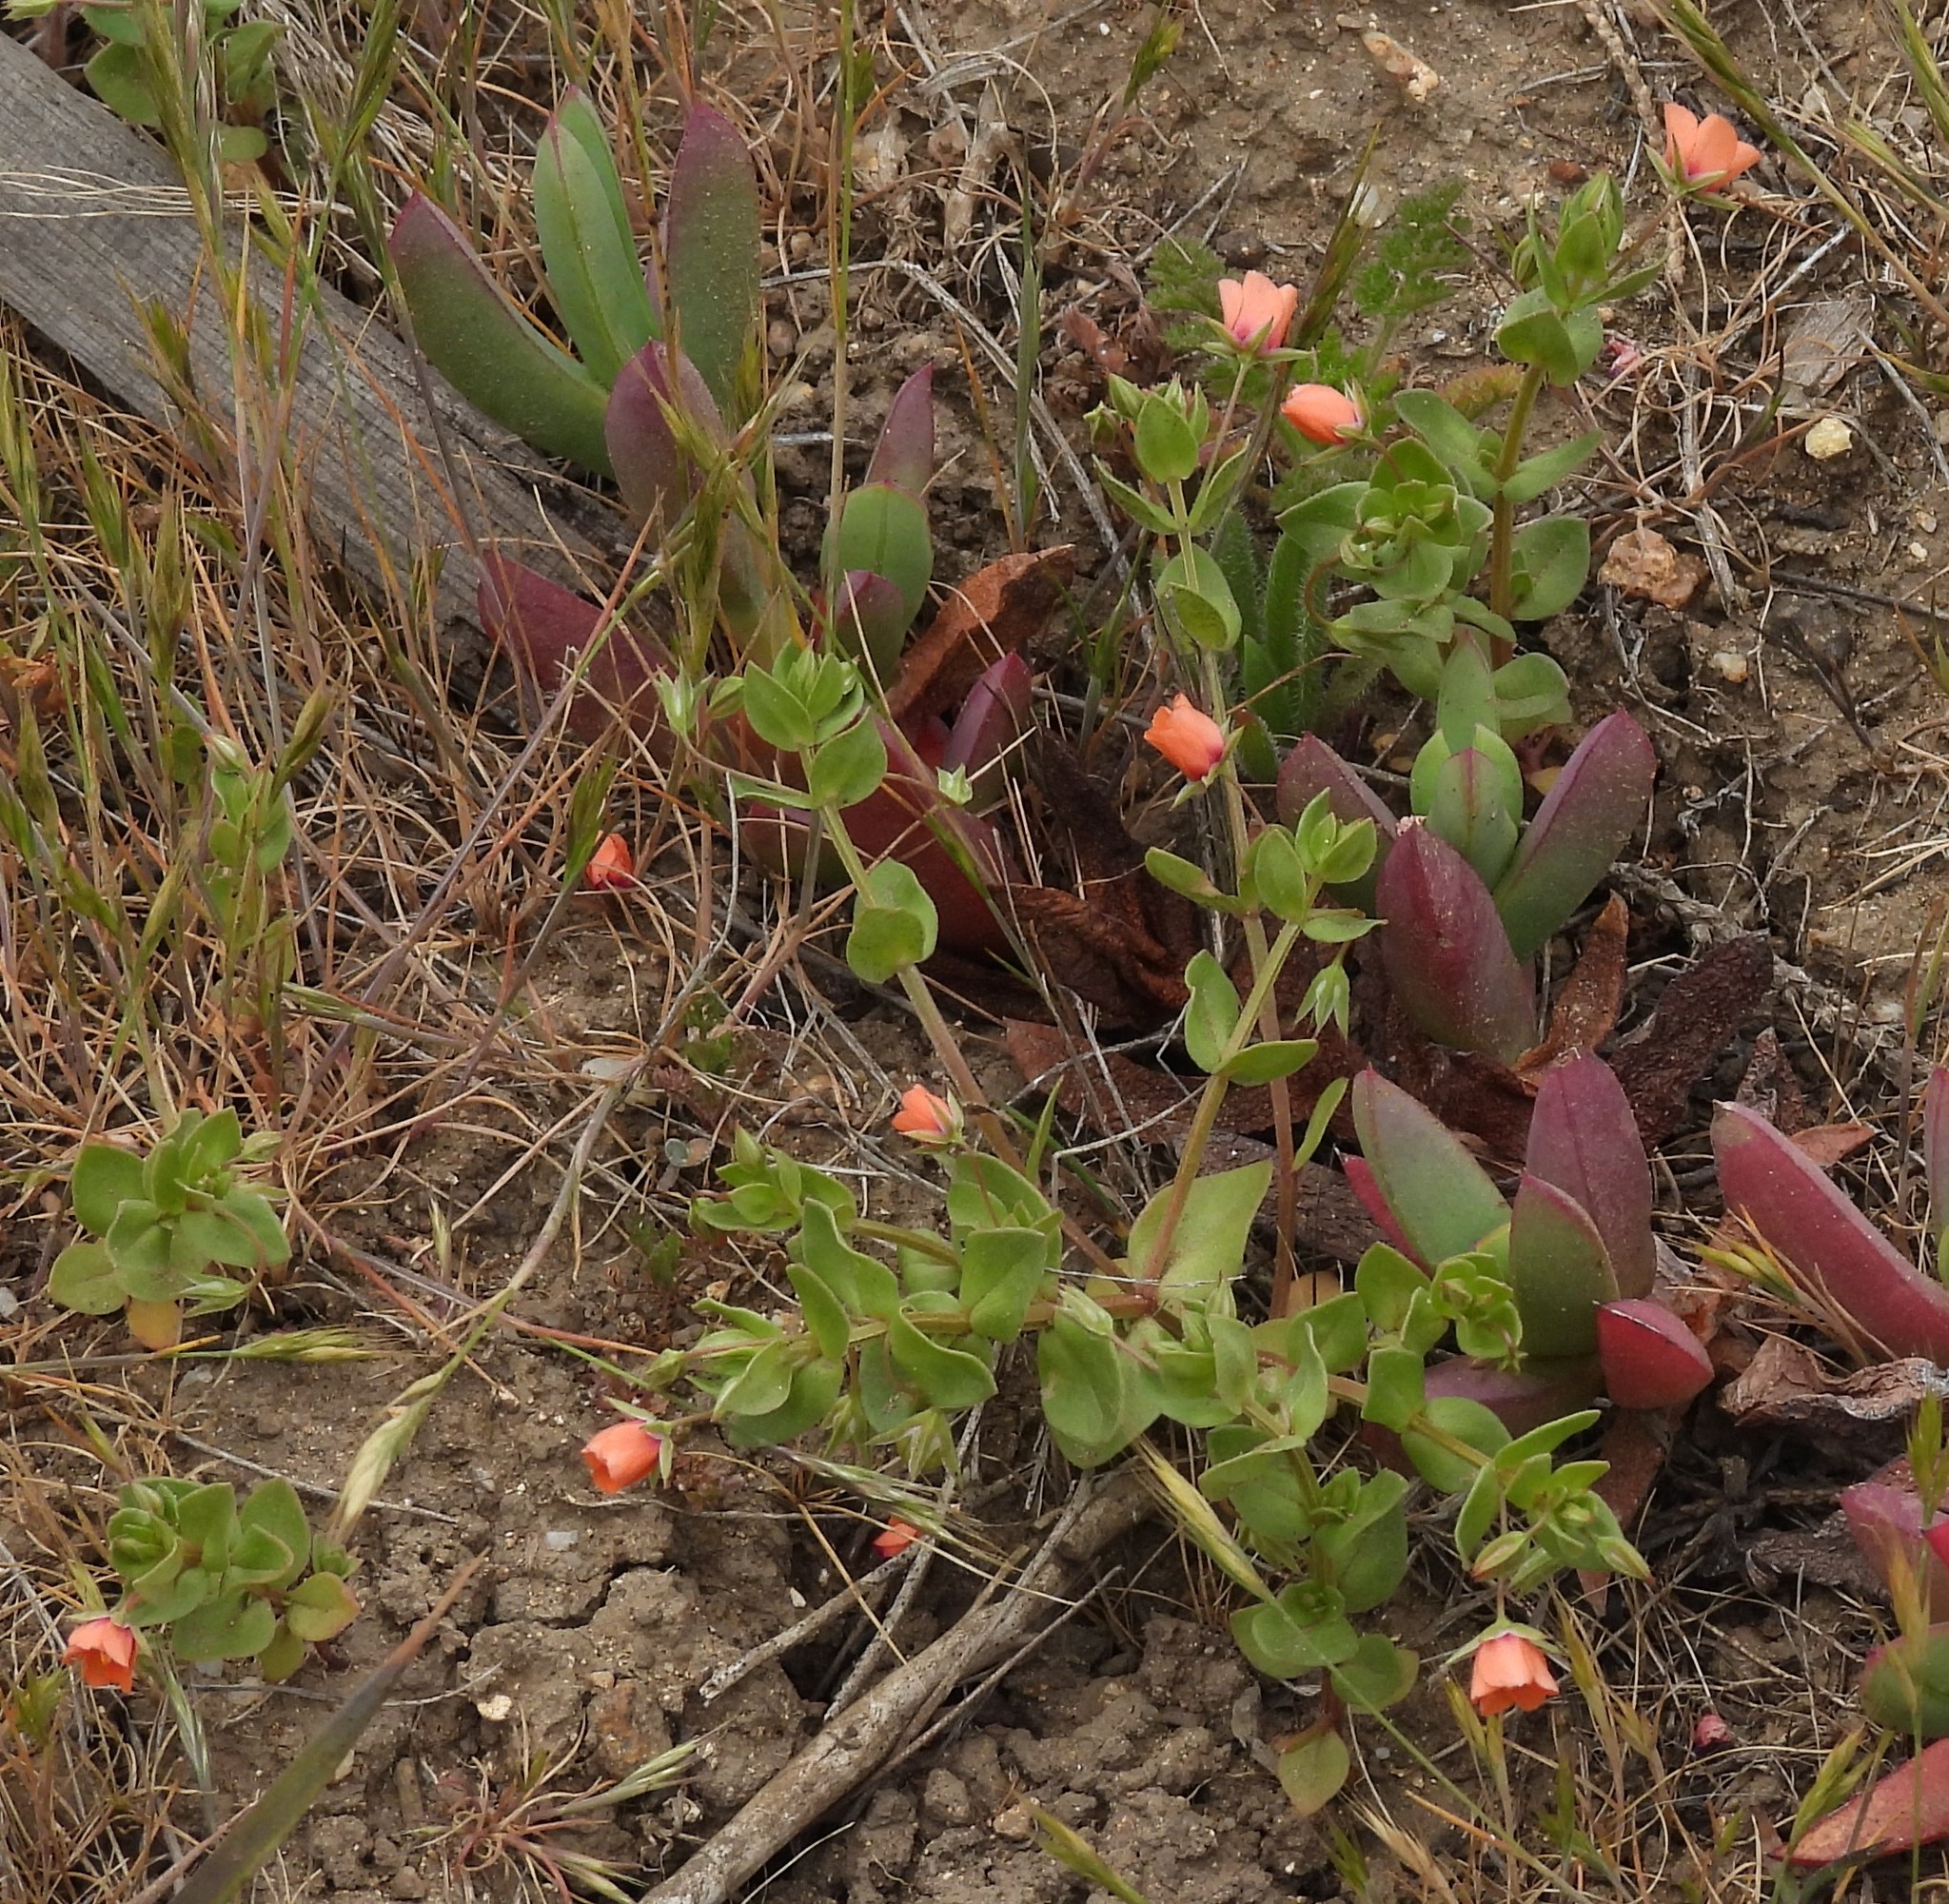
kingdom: Plantae
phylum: Tracheophyta
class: Magnoliopsida
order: Ericales
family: Primulaceae
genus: Lysimachia
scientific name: Lysimachia arvensis
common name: Scarlet pimpernel
